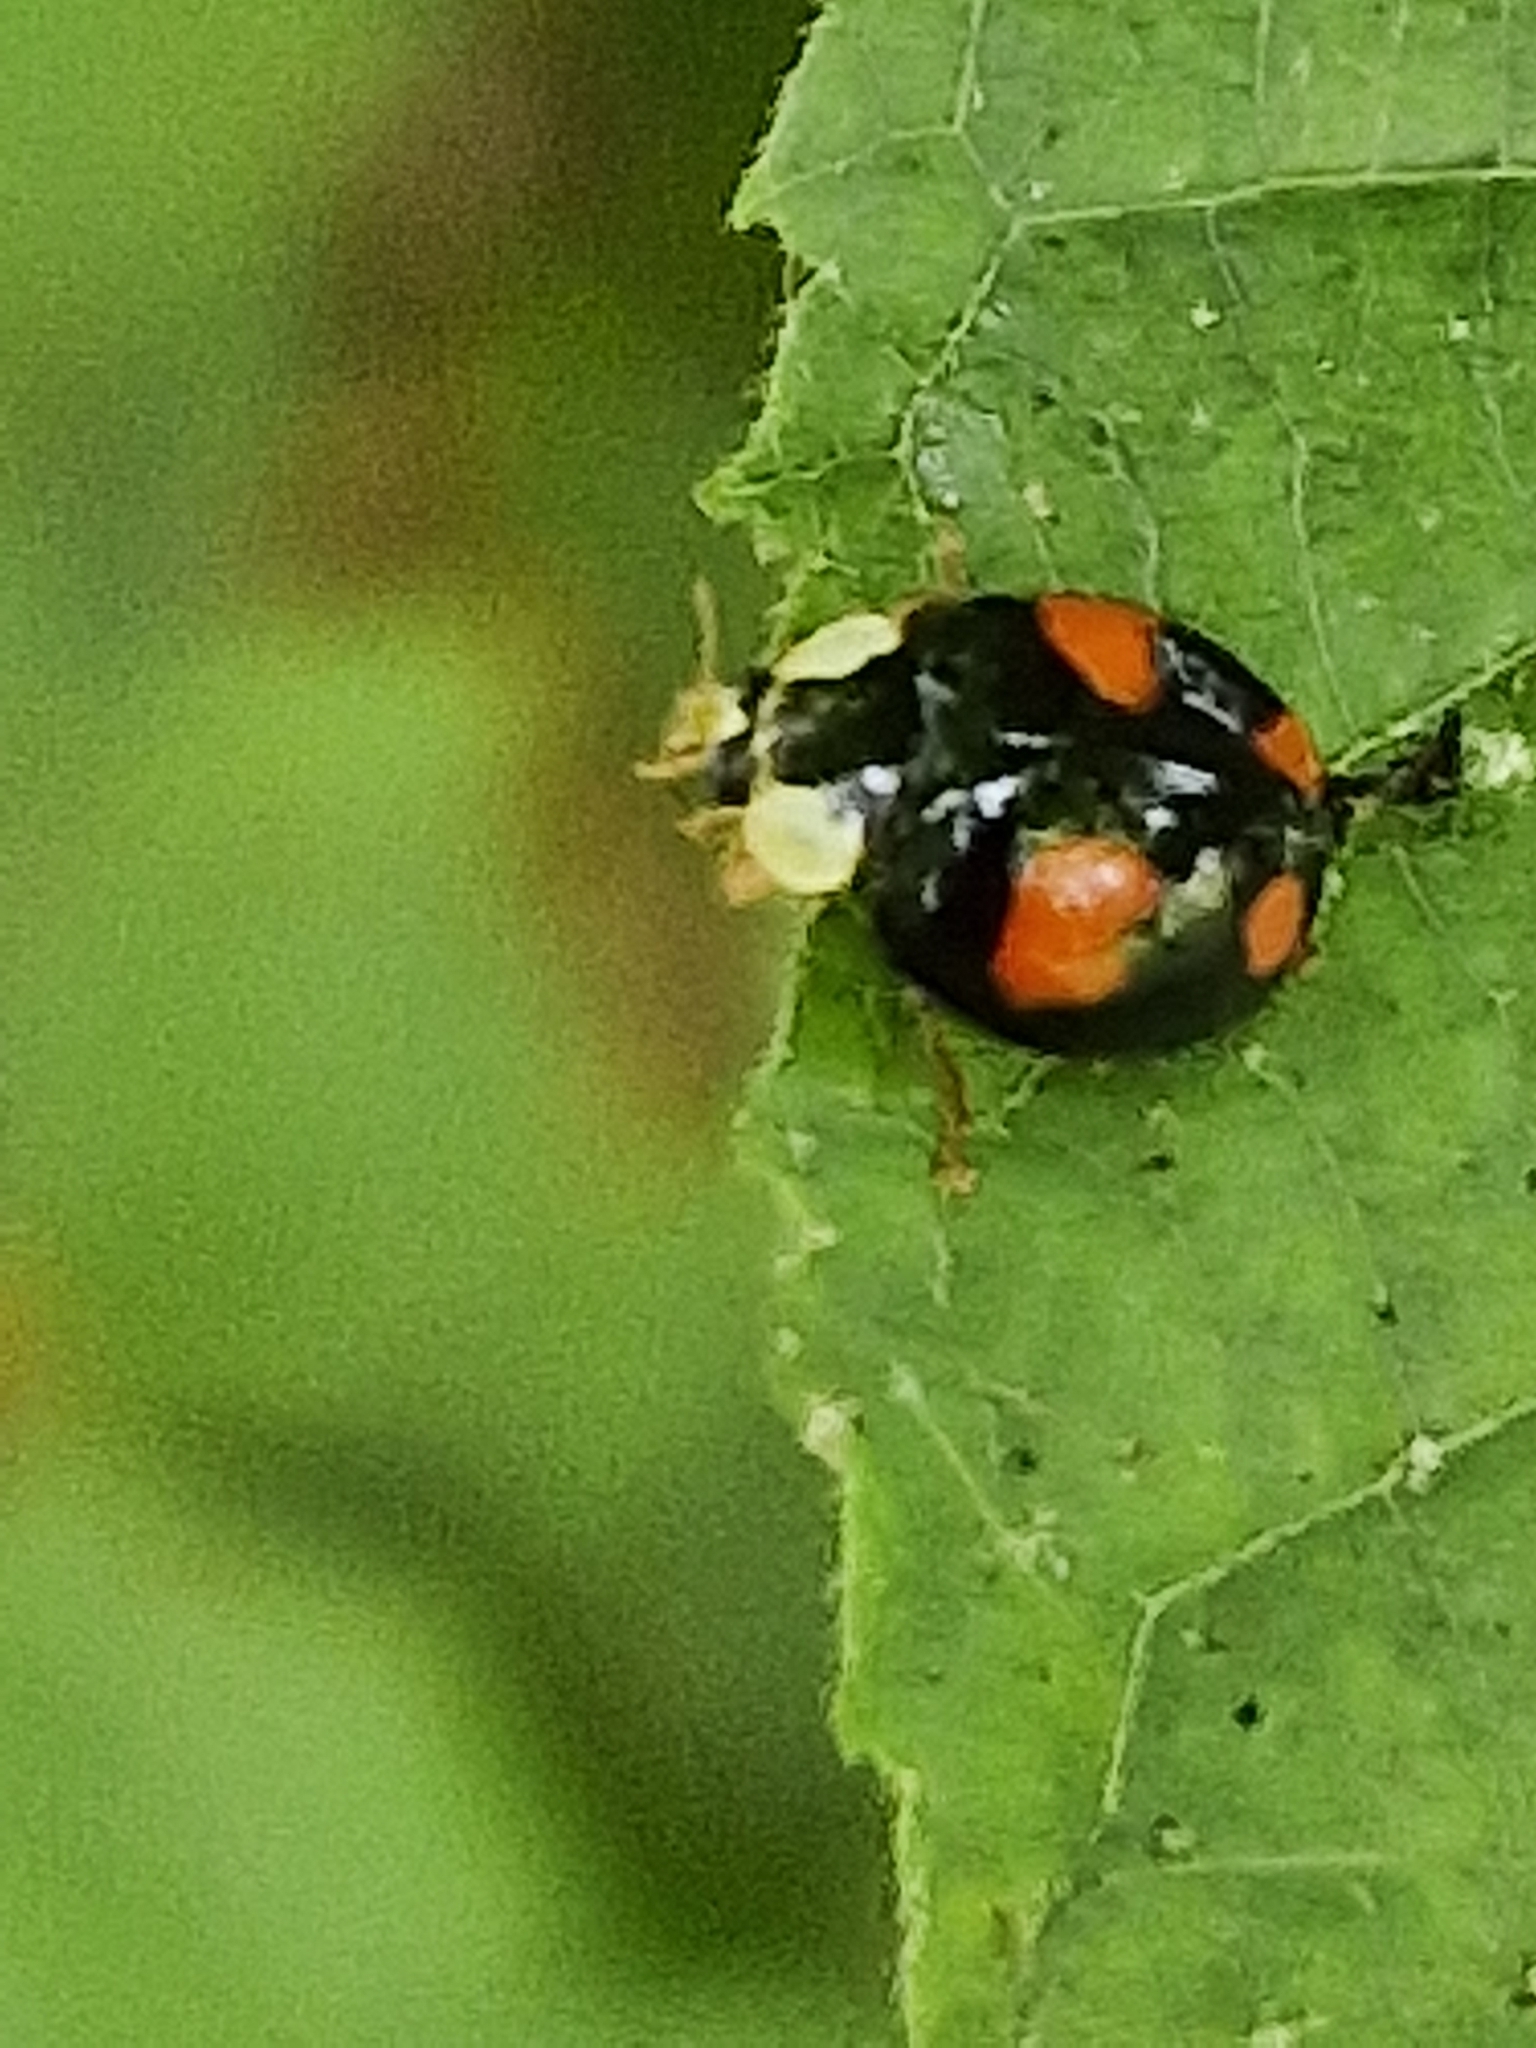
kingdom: Animalia
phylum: Arthropoda
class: Insecta
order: Coleoptera
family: Coccinellidae
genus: Harmonia
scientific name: Harmonia axyridis
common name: Harlequin ladybird
